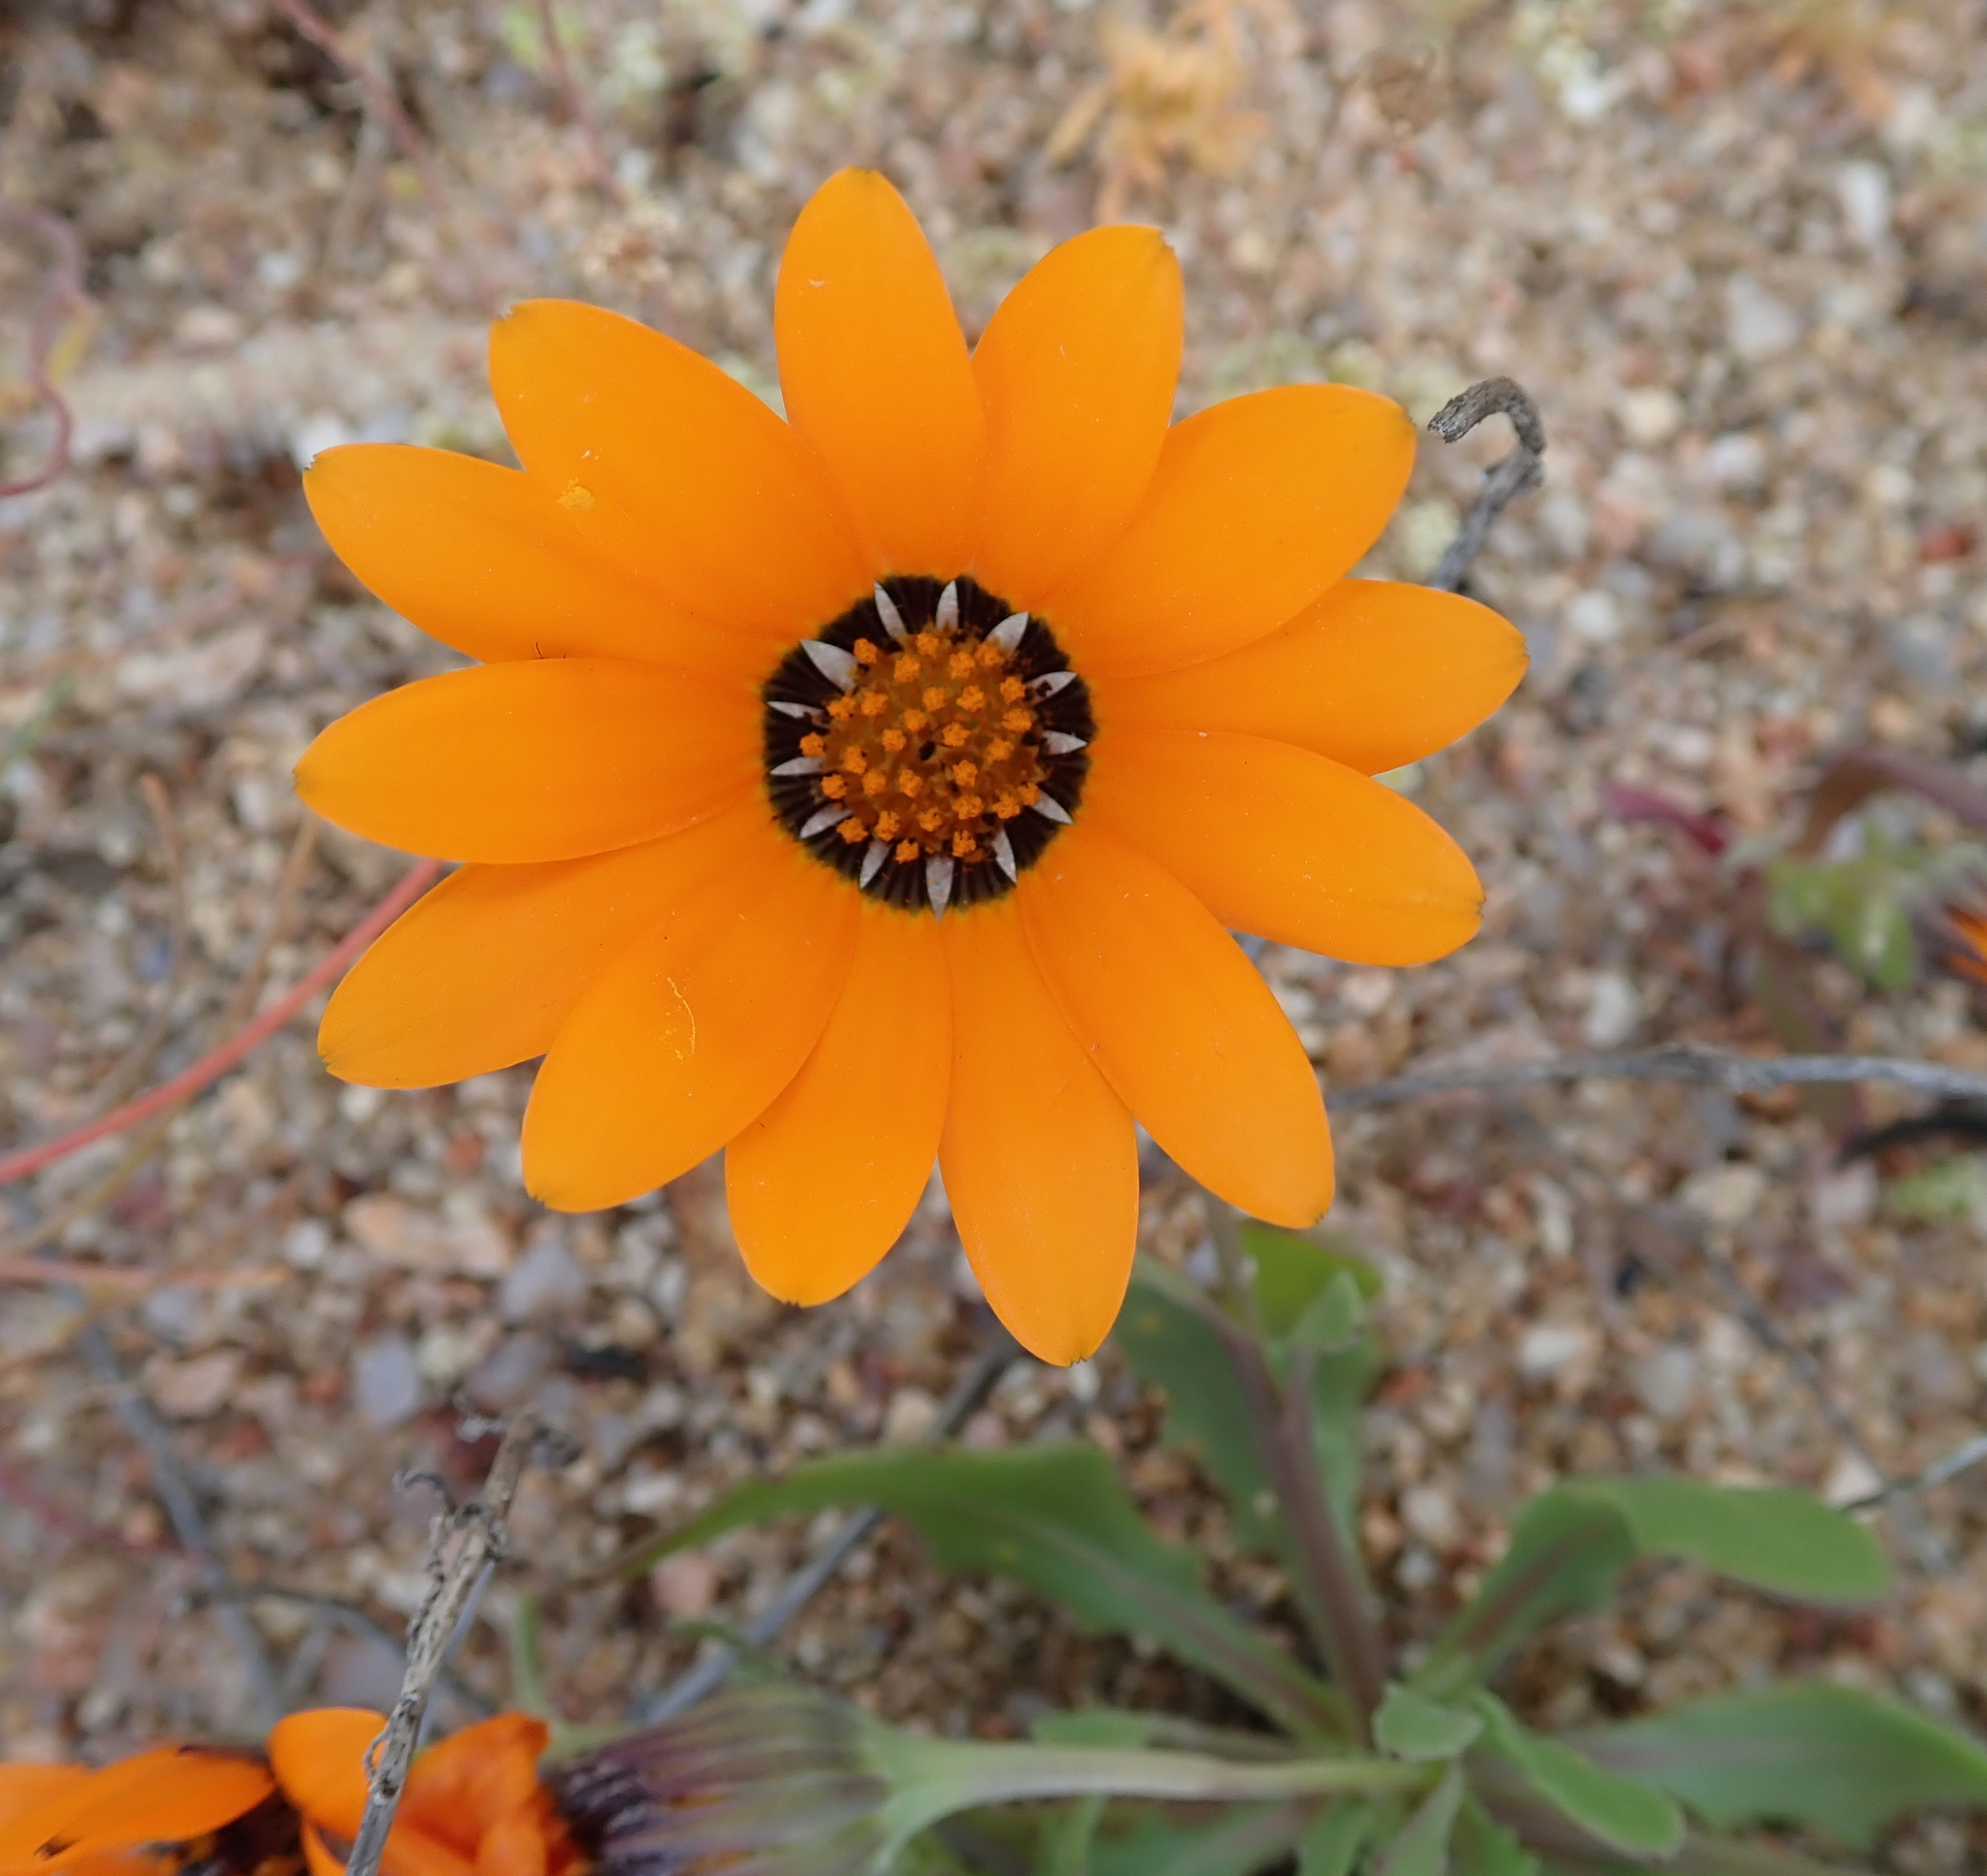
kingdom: Plantae
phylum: Tracheophyta
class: Magnoliopsida
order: Asterales
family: Asteraceae
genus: Dimorphotheca
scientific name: Dimorphotheca sinuata
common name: Glandular cape marigold
